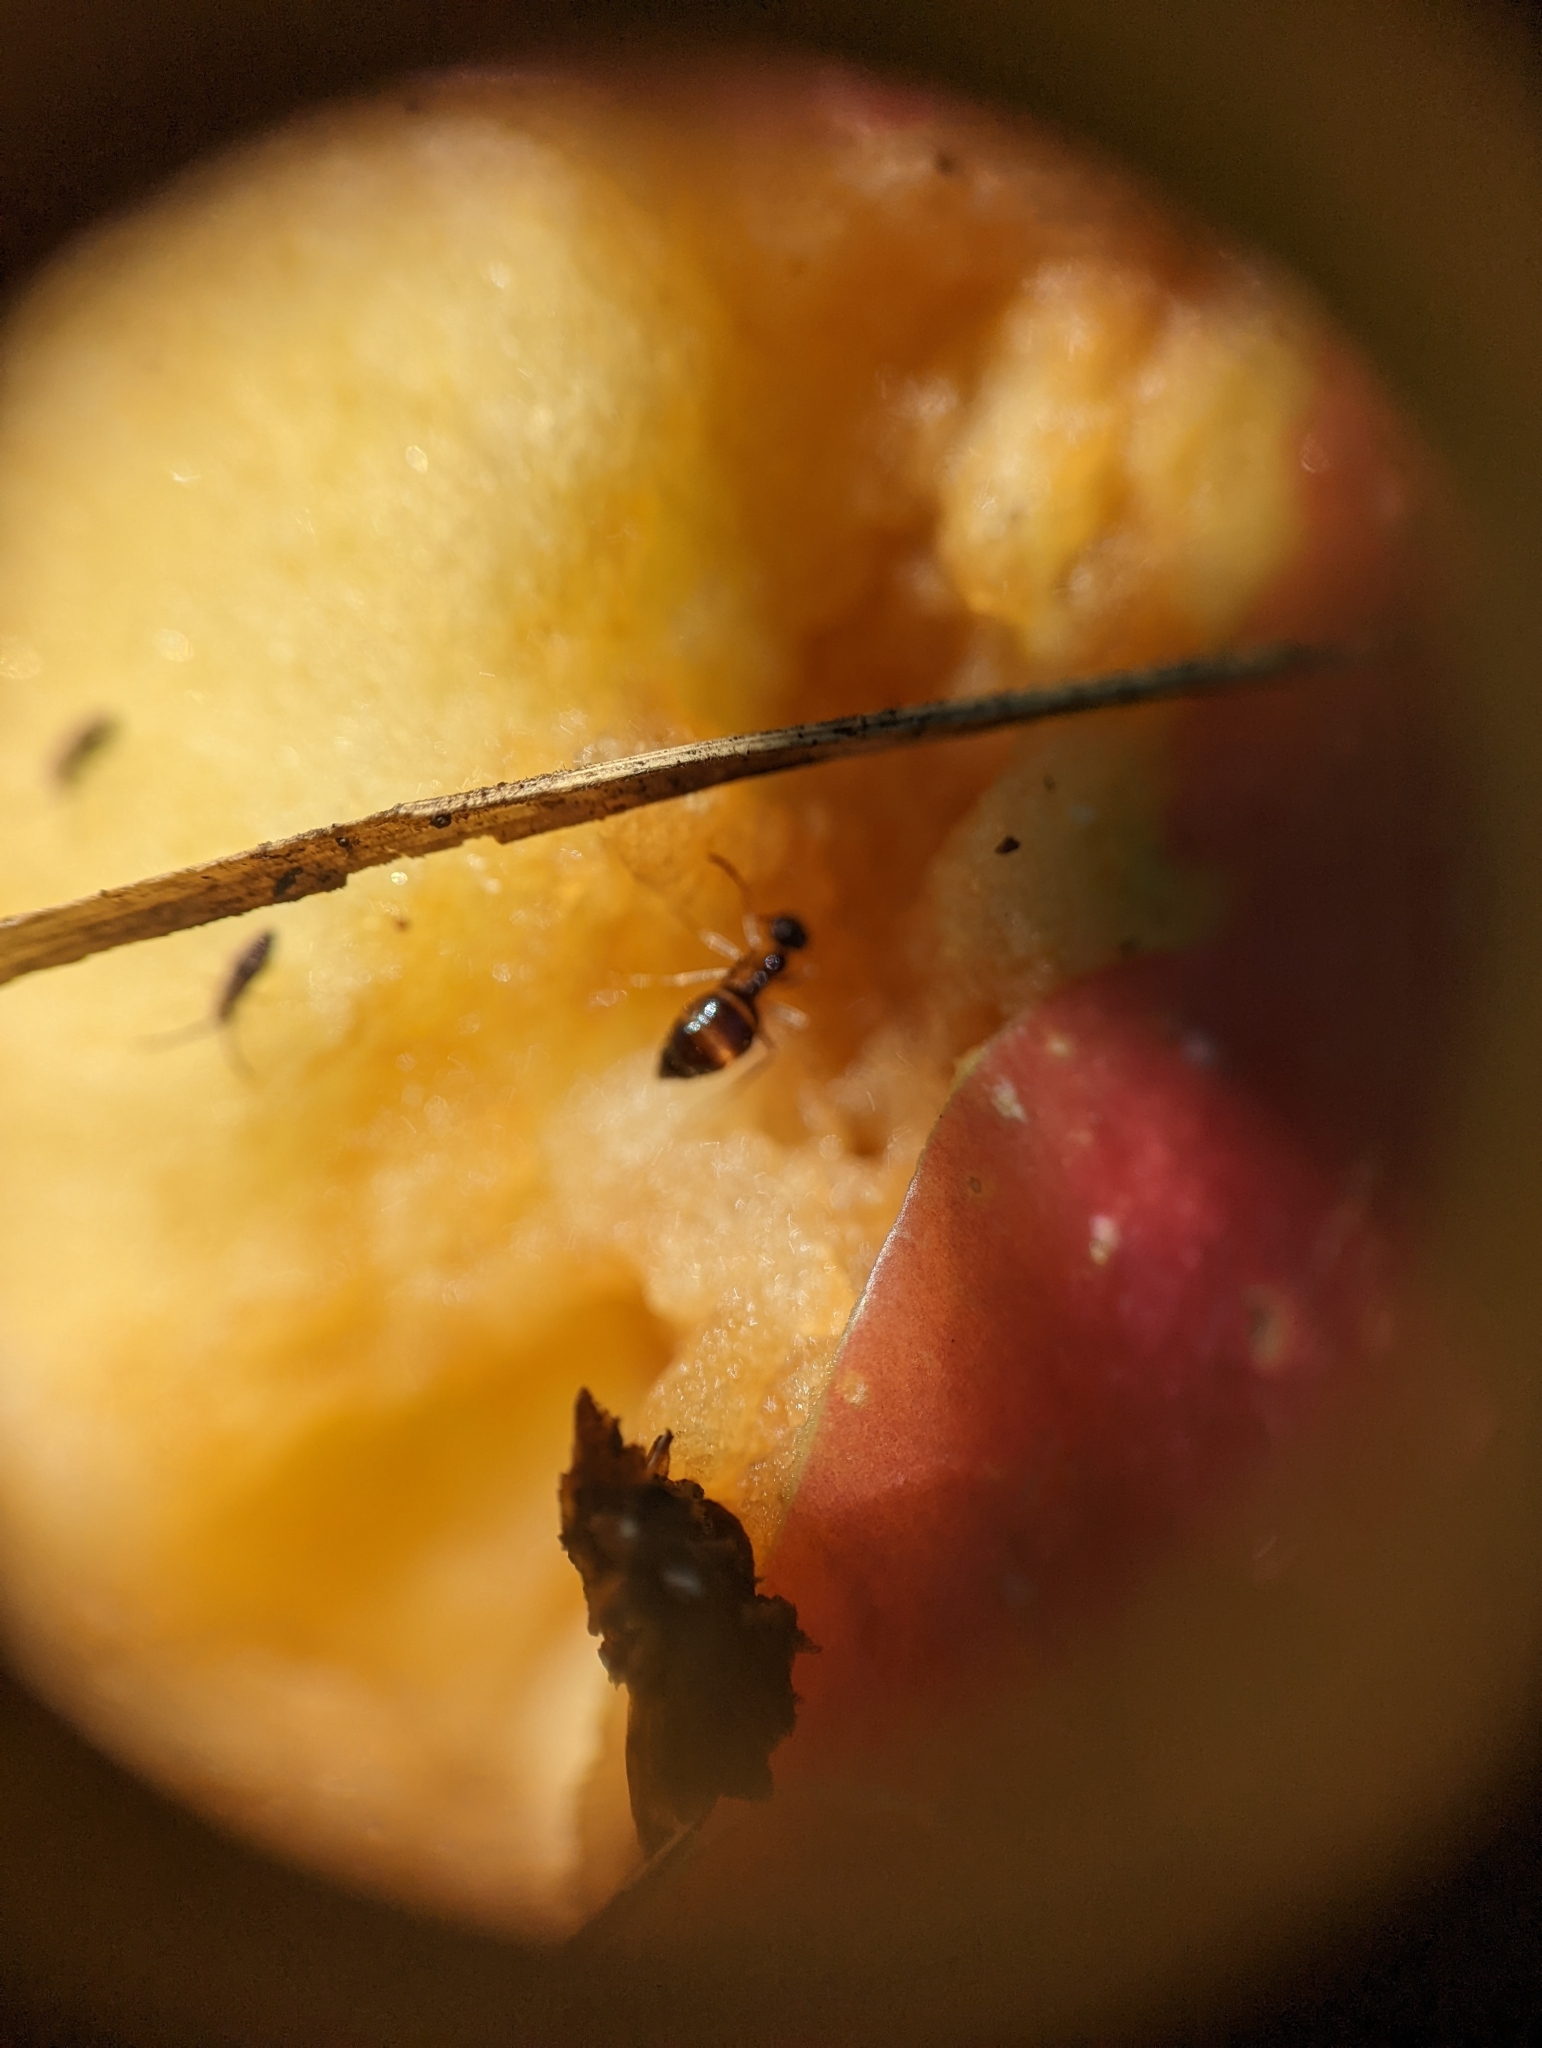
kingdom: Animalia
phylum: Arthropoda
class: Insecta
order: Hymenoptera
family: Formicidae
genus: Prenolepis
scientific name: Prenolepis imparis
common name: Small honey ant
